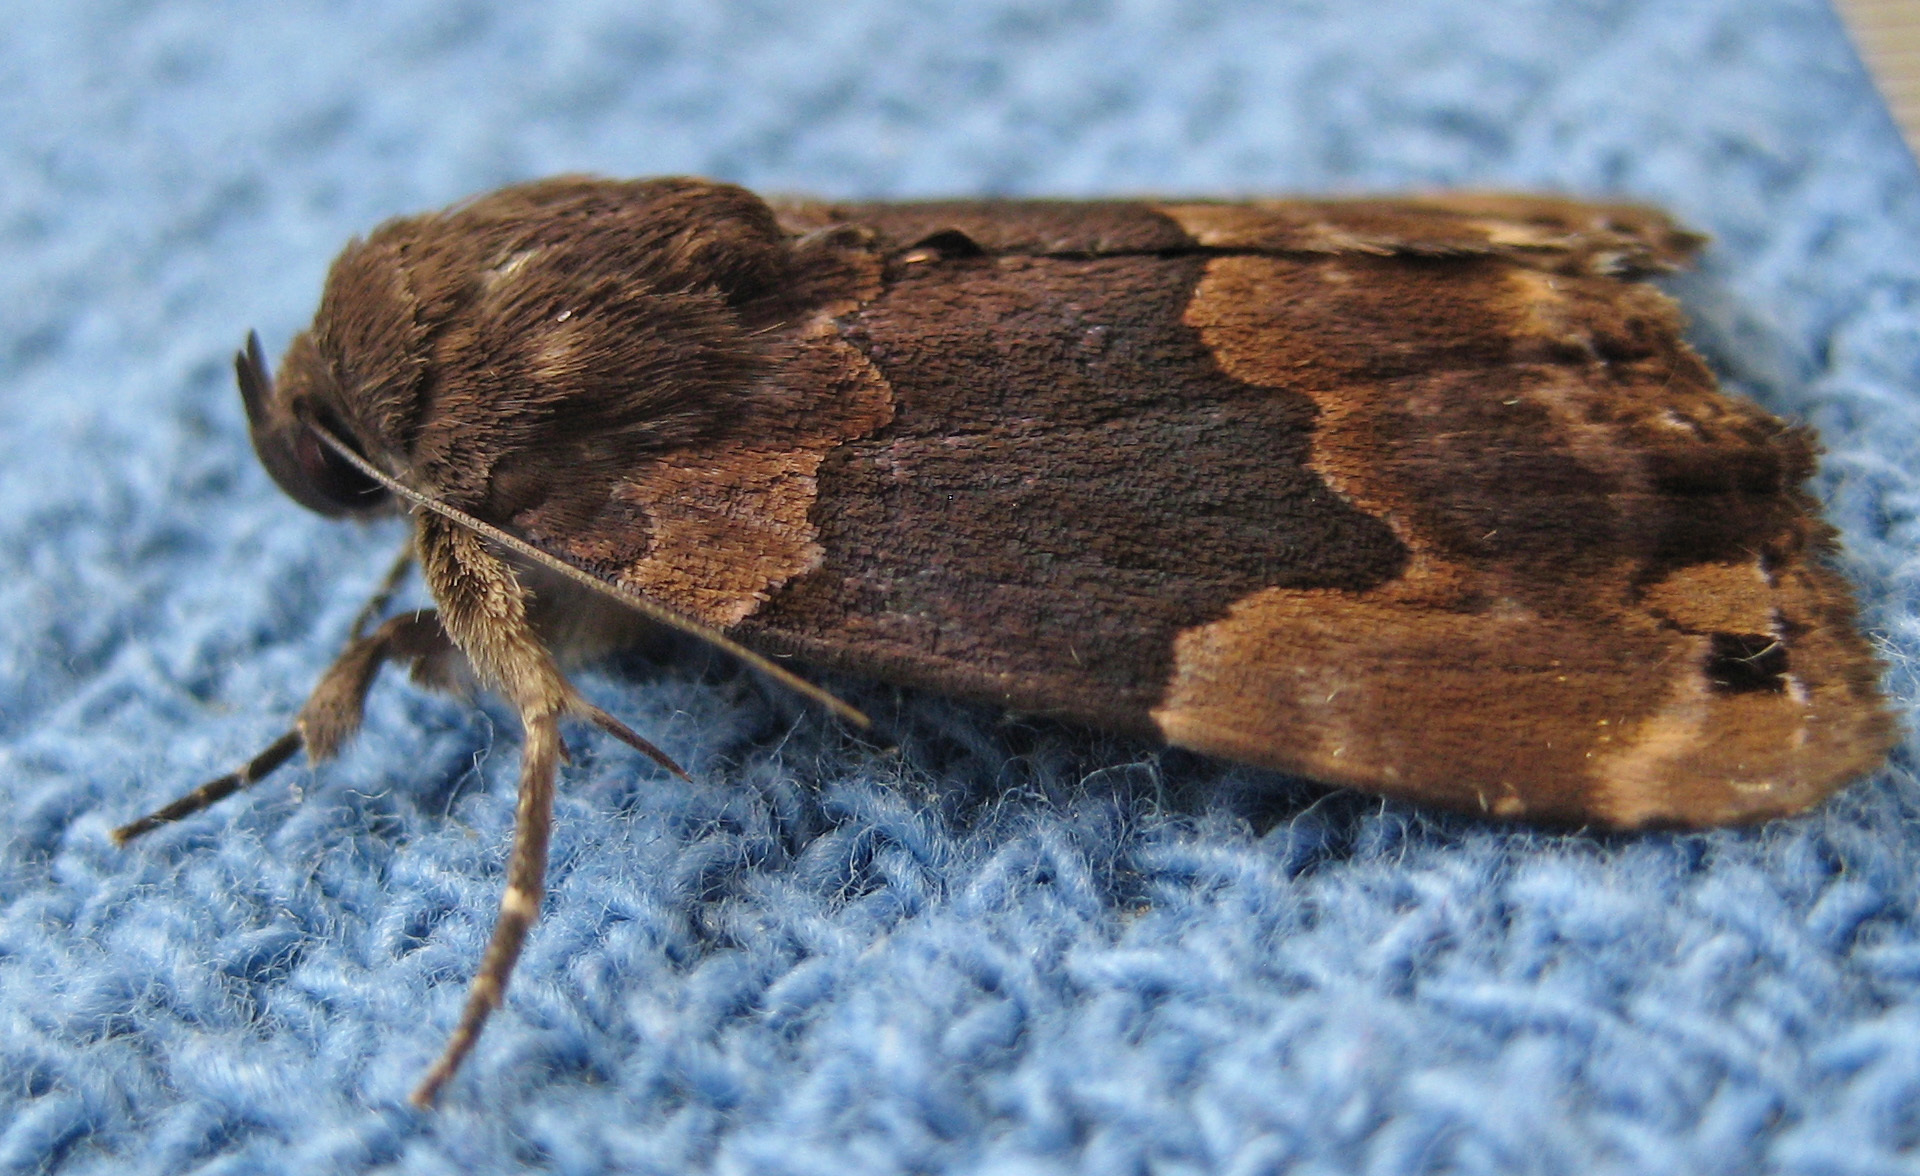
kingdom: Animalia
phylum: Arthropoda
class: Insecta
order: Lepidoptera
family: Erebidae
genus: Dinumma
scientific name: Dinumma deponens
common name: Purplish moth
